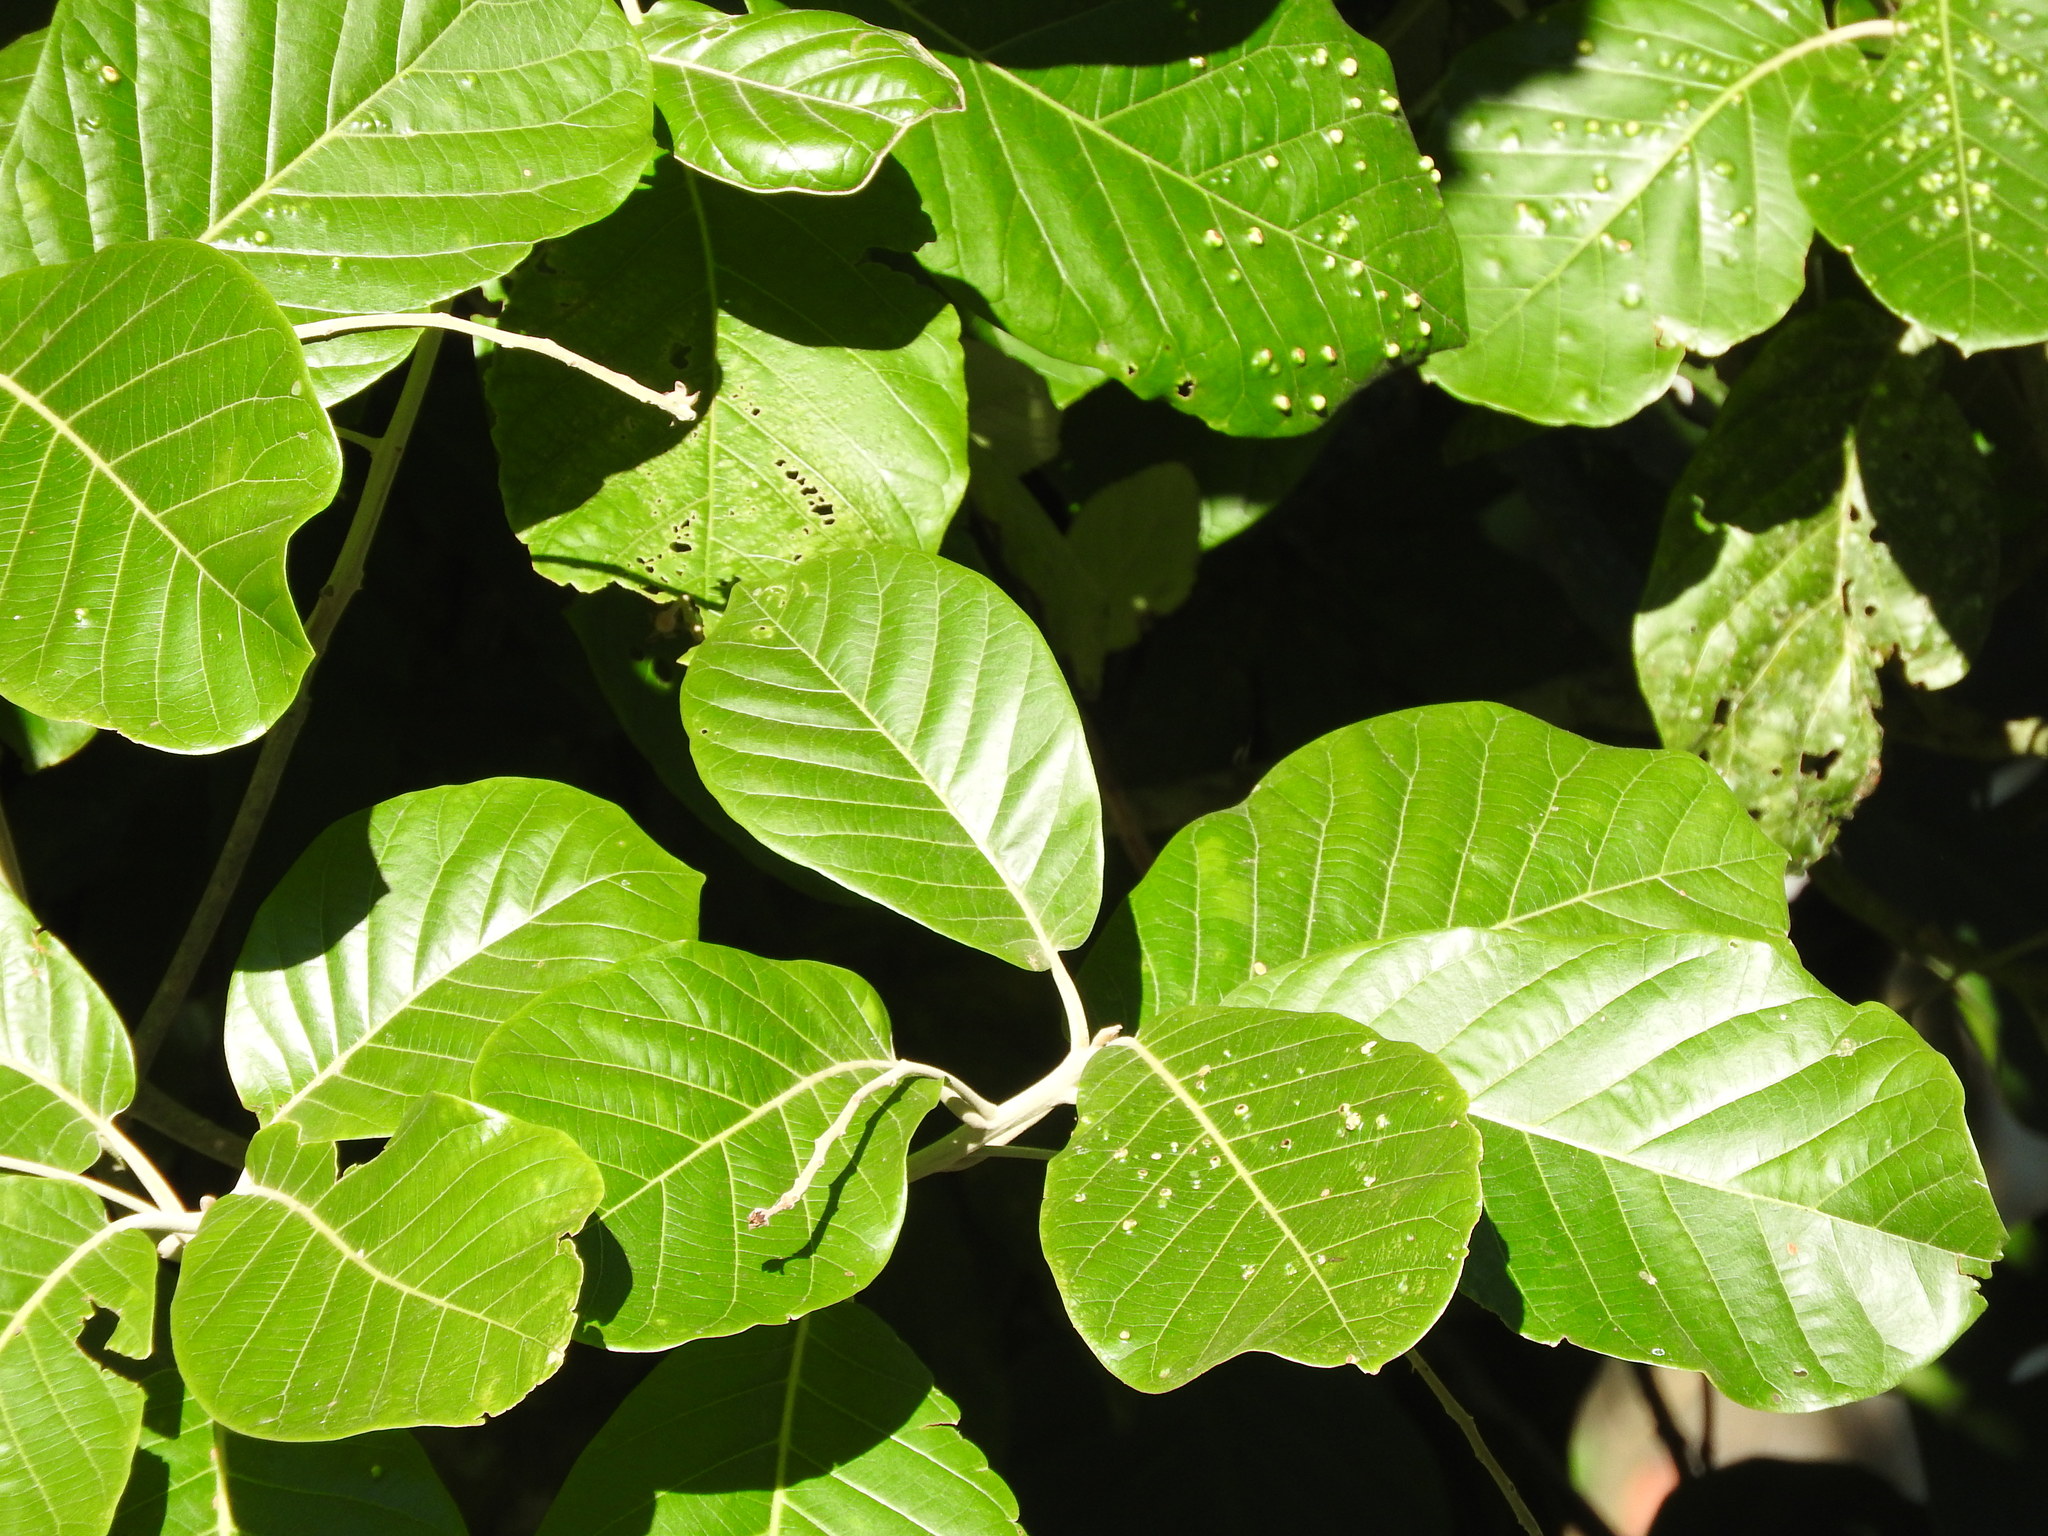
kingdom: Plantae
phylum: Tracheophyta
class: Magnoliopsida
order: Laurales
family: Lauraceae
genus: Ocotea
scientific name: Ocotea sinuata
